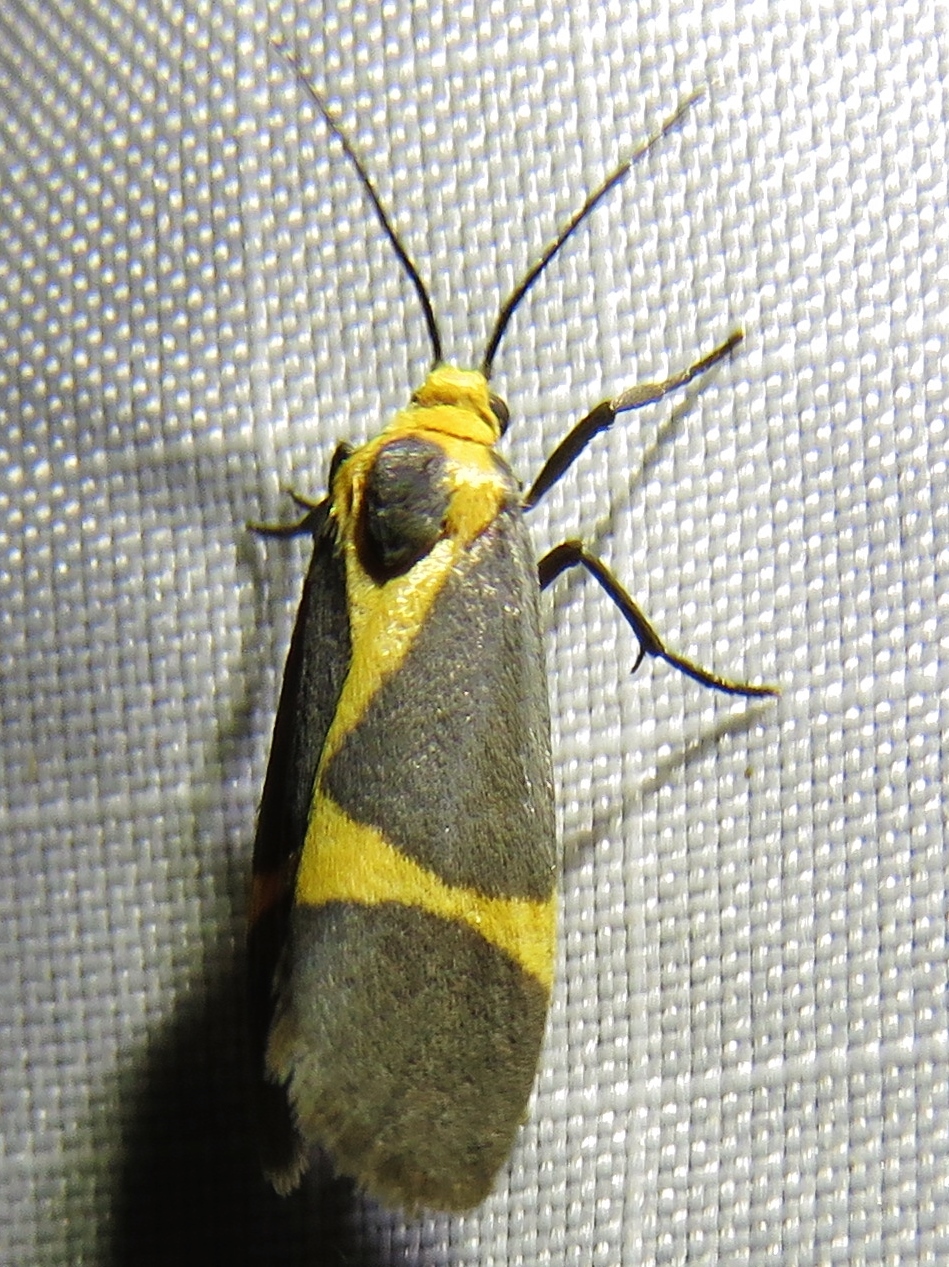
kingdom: Animalia
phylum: Arthropoda
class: Insecta
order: Lepidoptera
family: Erebidae
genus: Cisthene
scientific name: Cisthene tenuifascia
